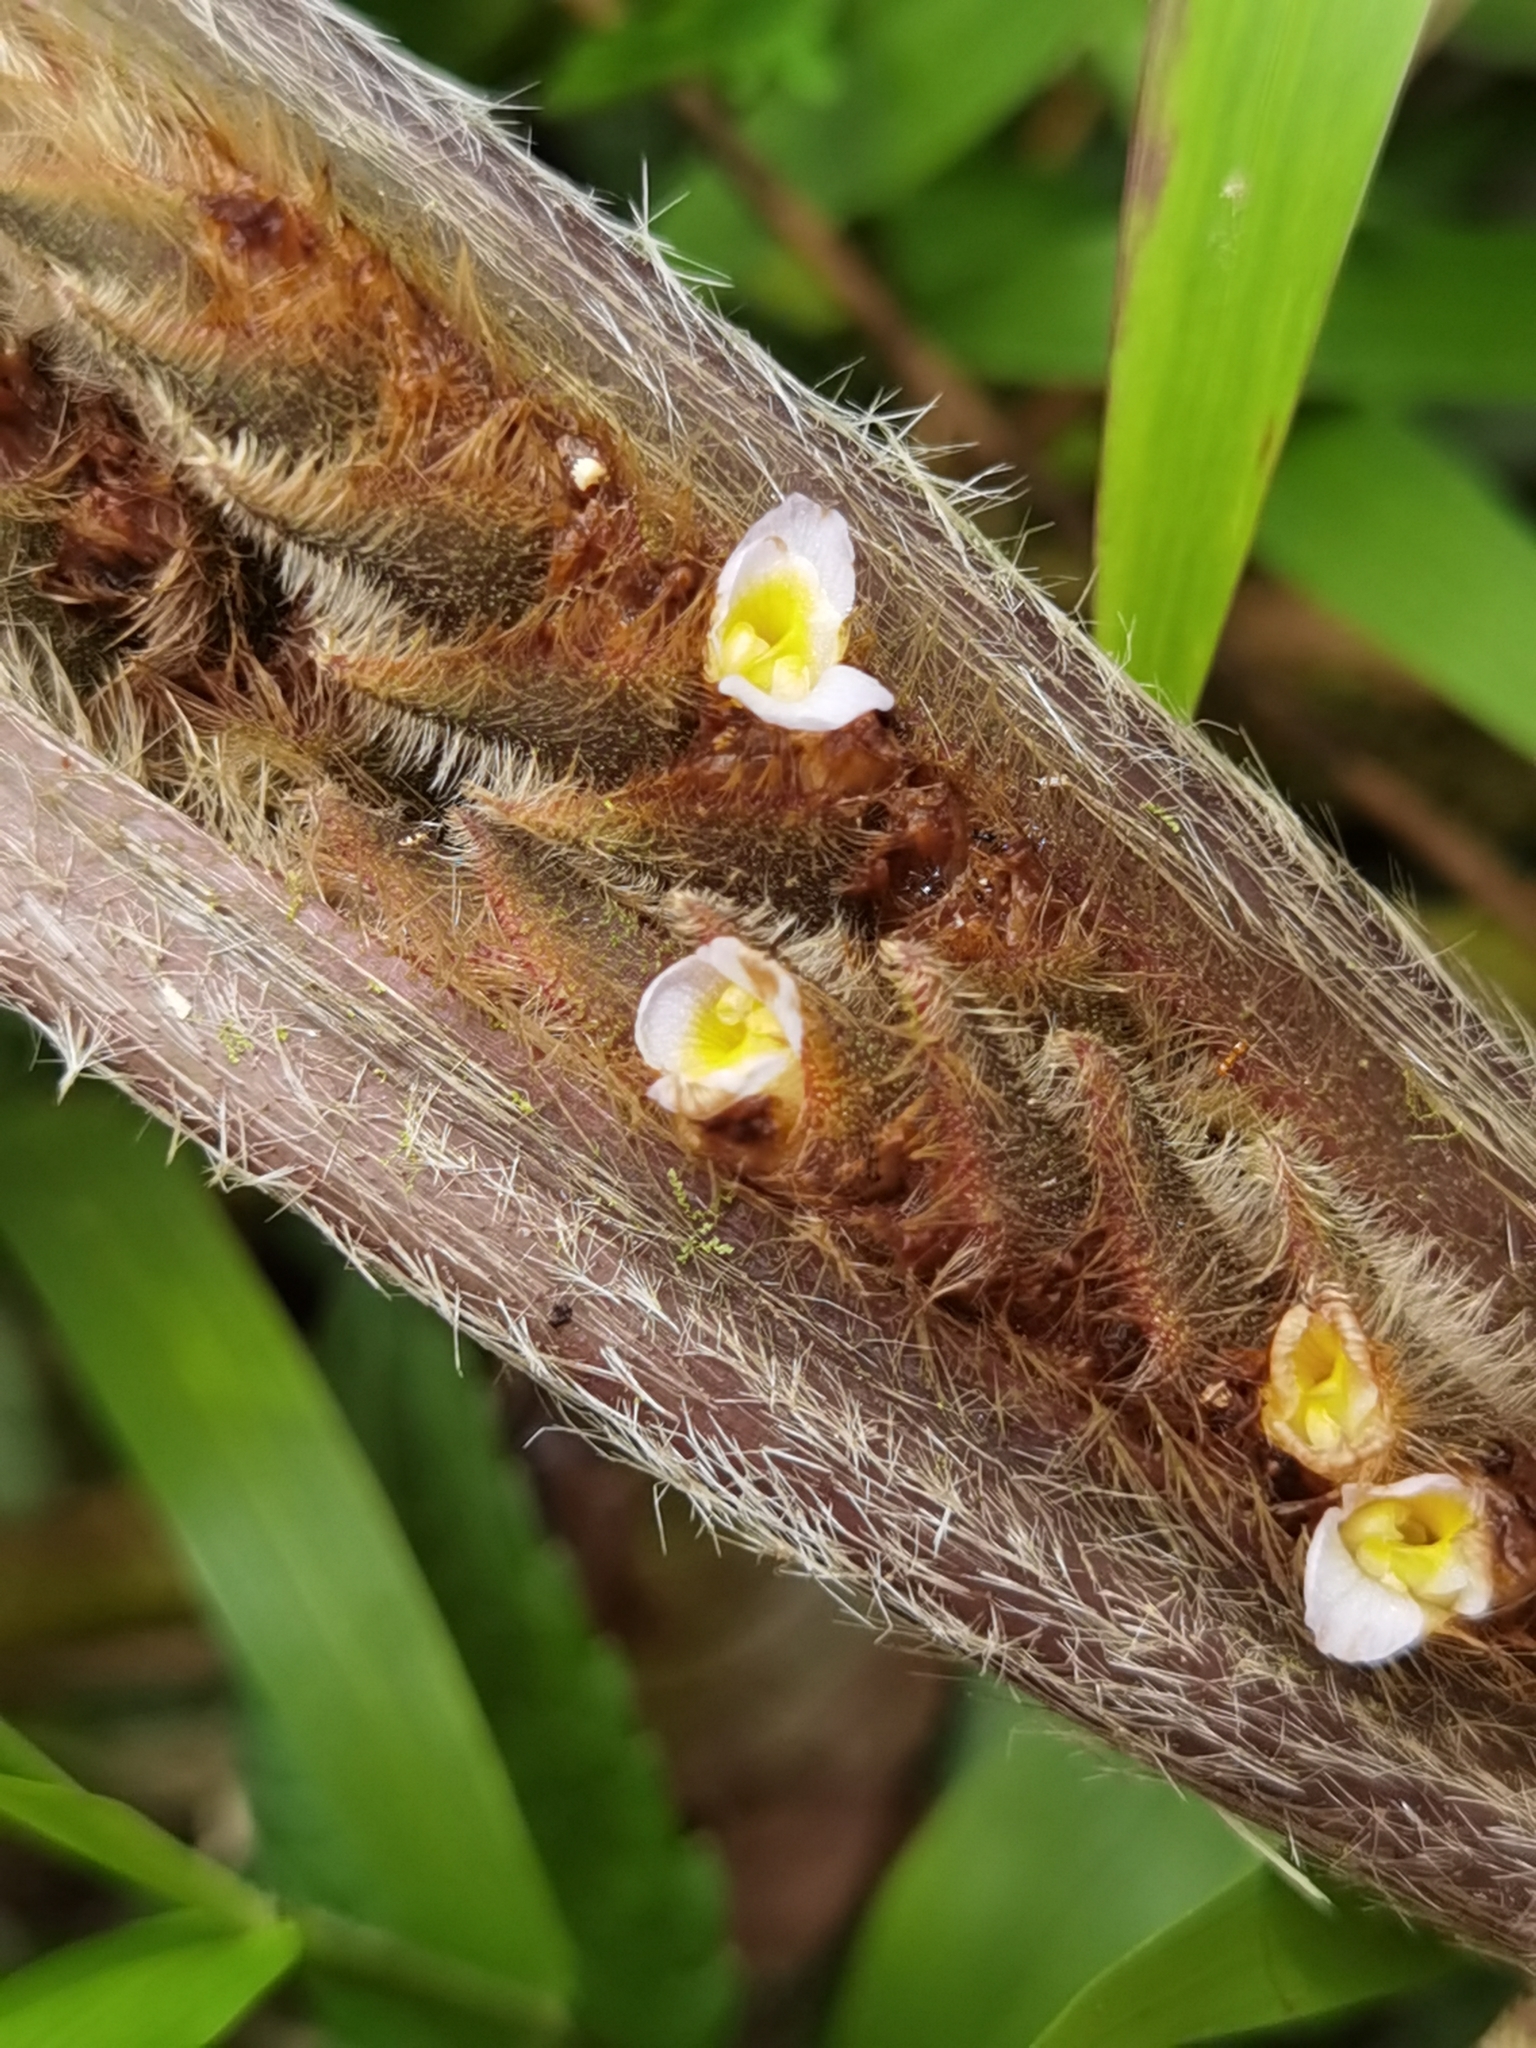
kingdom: Plantae
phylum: Tracheophyta
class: Liliopsida
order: Zingiberales
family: Marantaceae
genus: Ctenanthe
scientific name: Ctenanthe oppenheimiana
